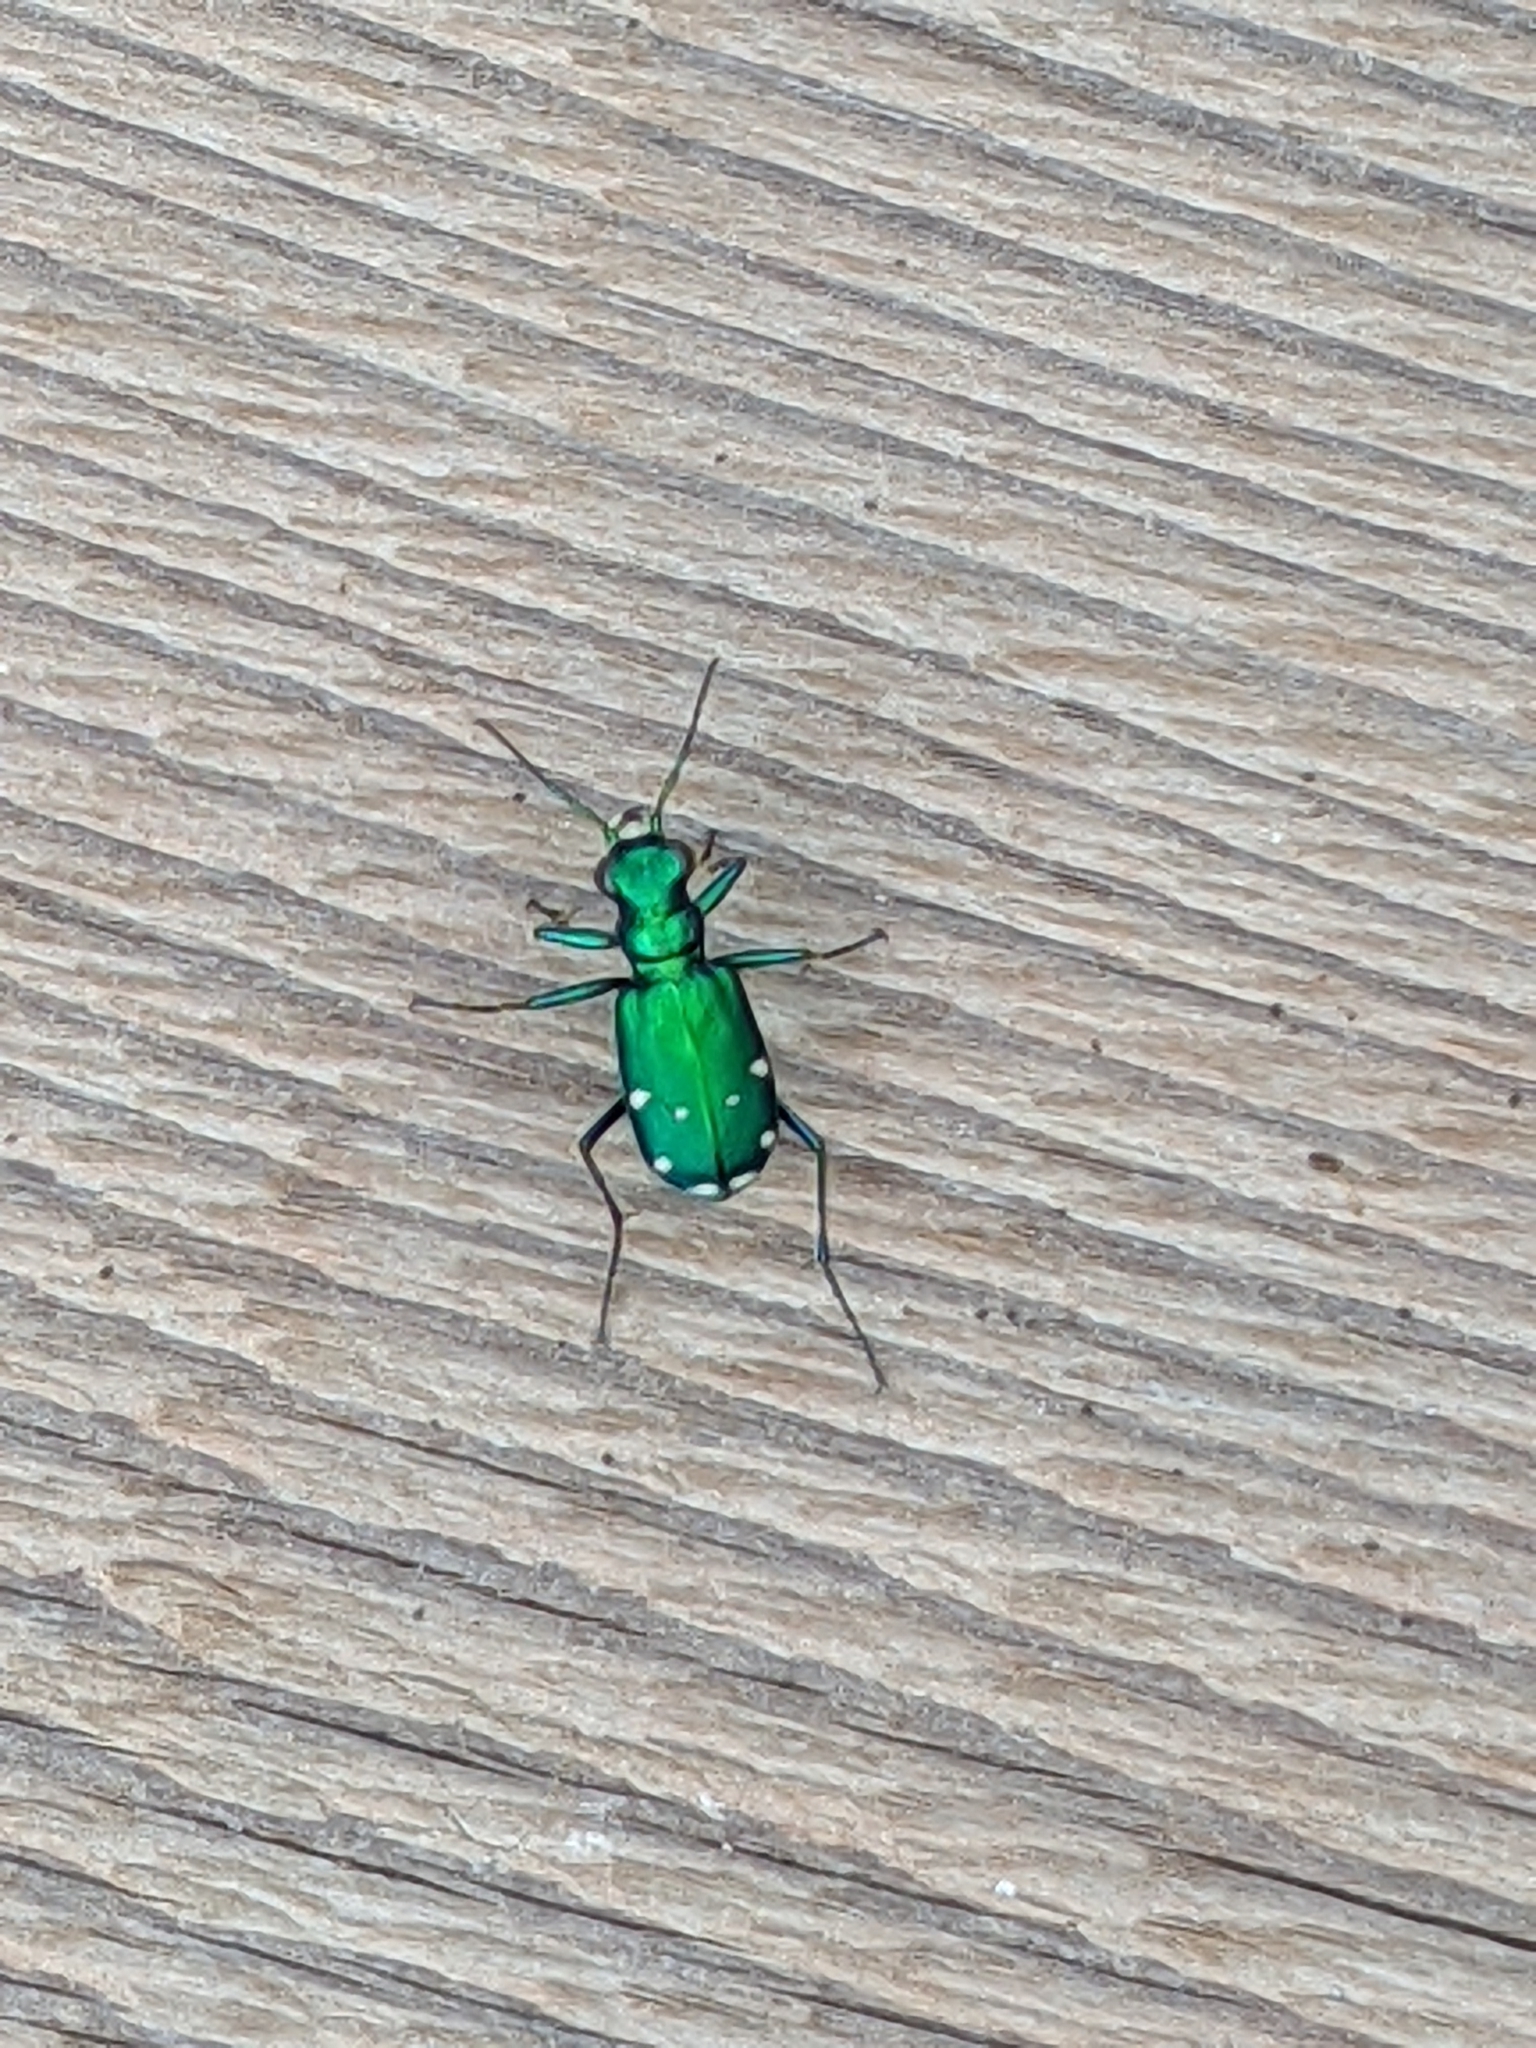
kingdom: Animalia
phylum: Arthropoda
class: Insecta
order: Coleoptera
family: Carabidae
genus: Cicindela
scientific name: Cicindela sexguttata
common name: Six-spotted tiger beetle
